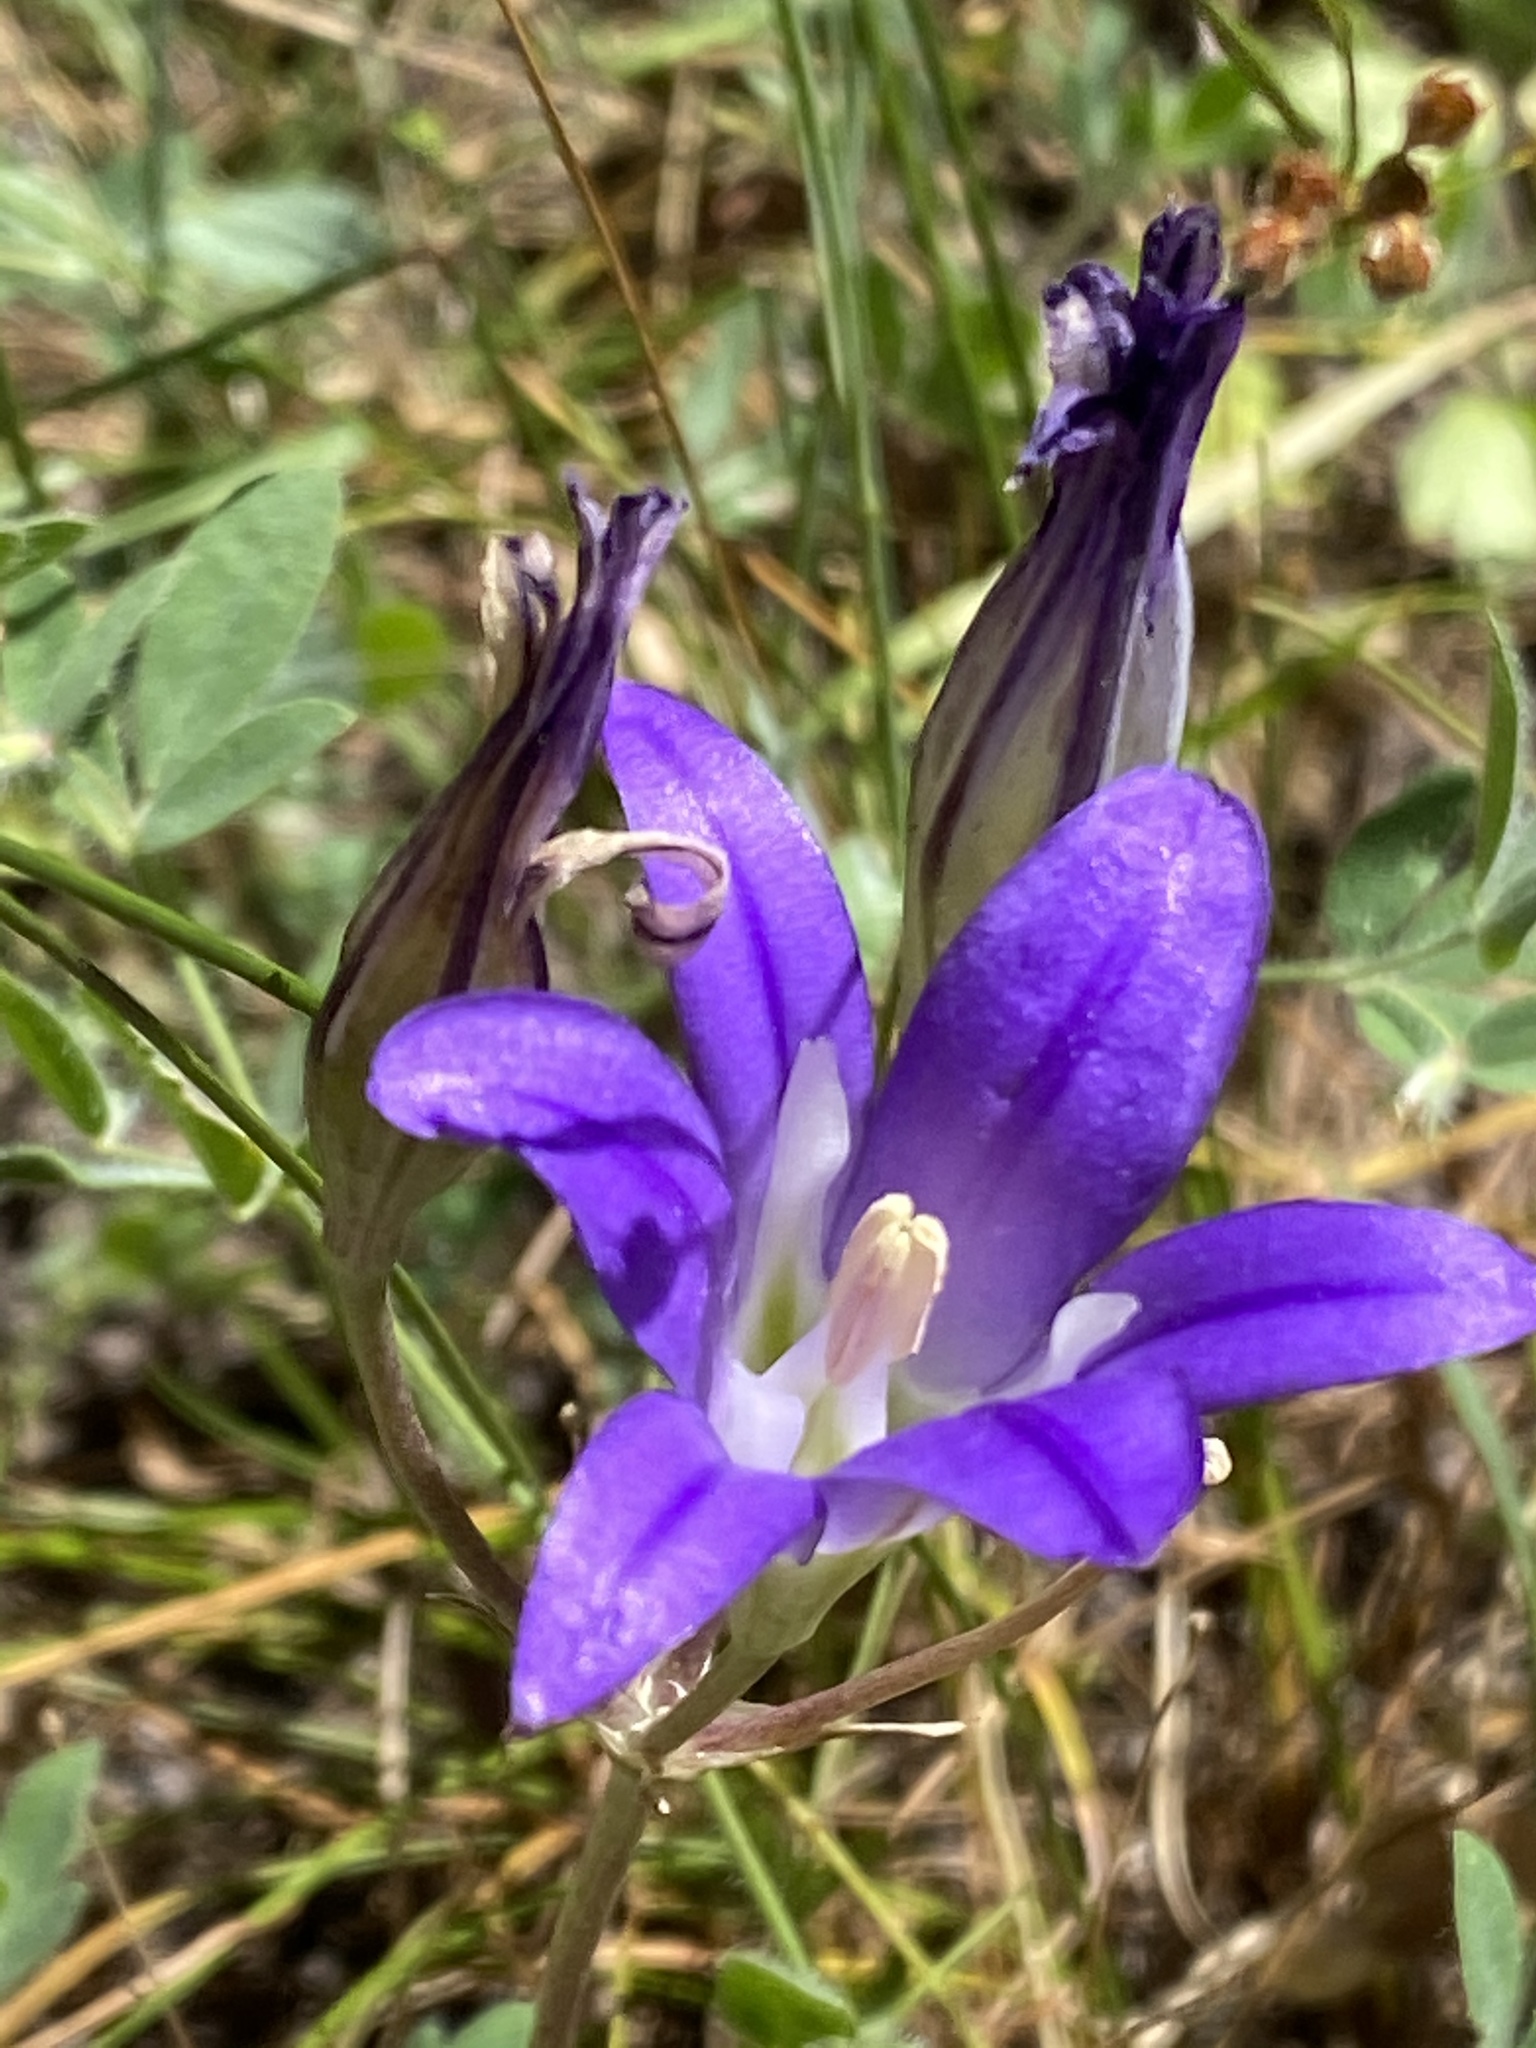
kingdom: Plantae
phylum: Tracheophyta
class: Liliopsida
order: Asparagales
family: Asparagaceae
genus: Brodiaea
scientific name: Brodiaea elegans
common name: Elegant cluster-lily
